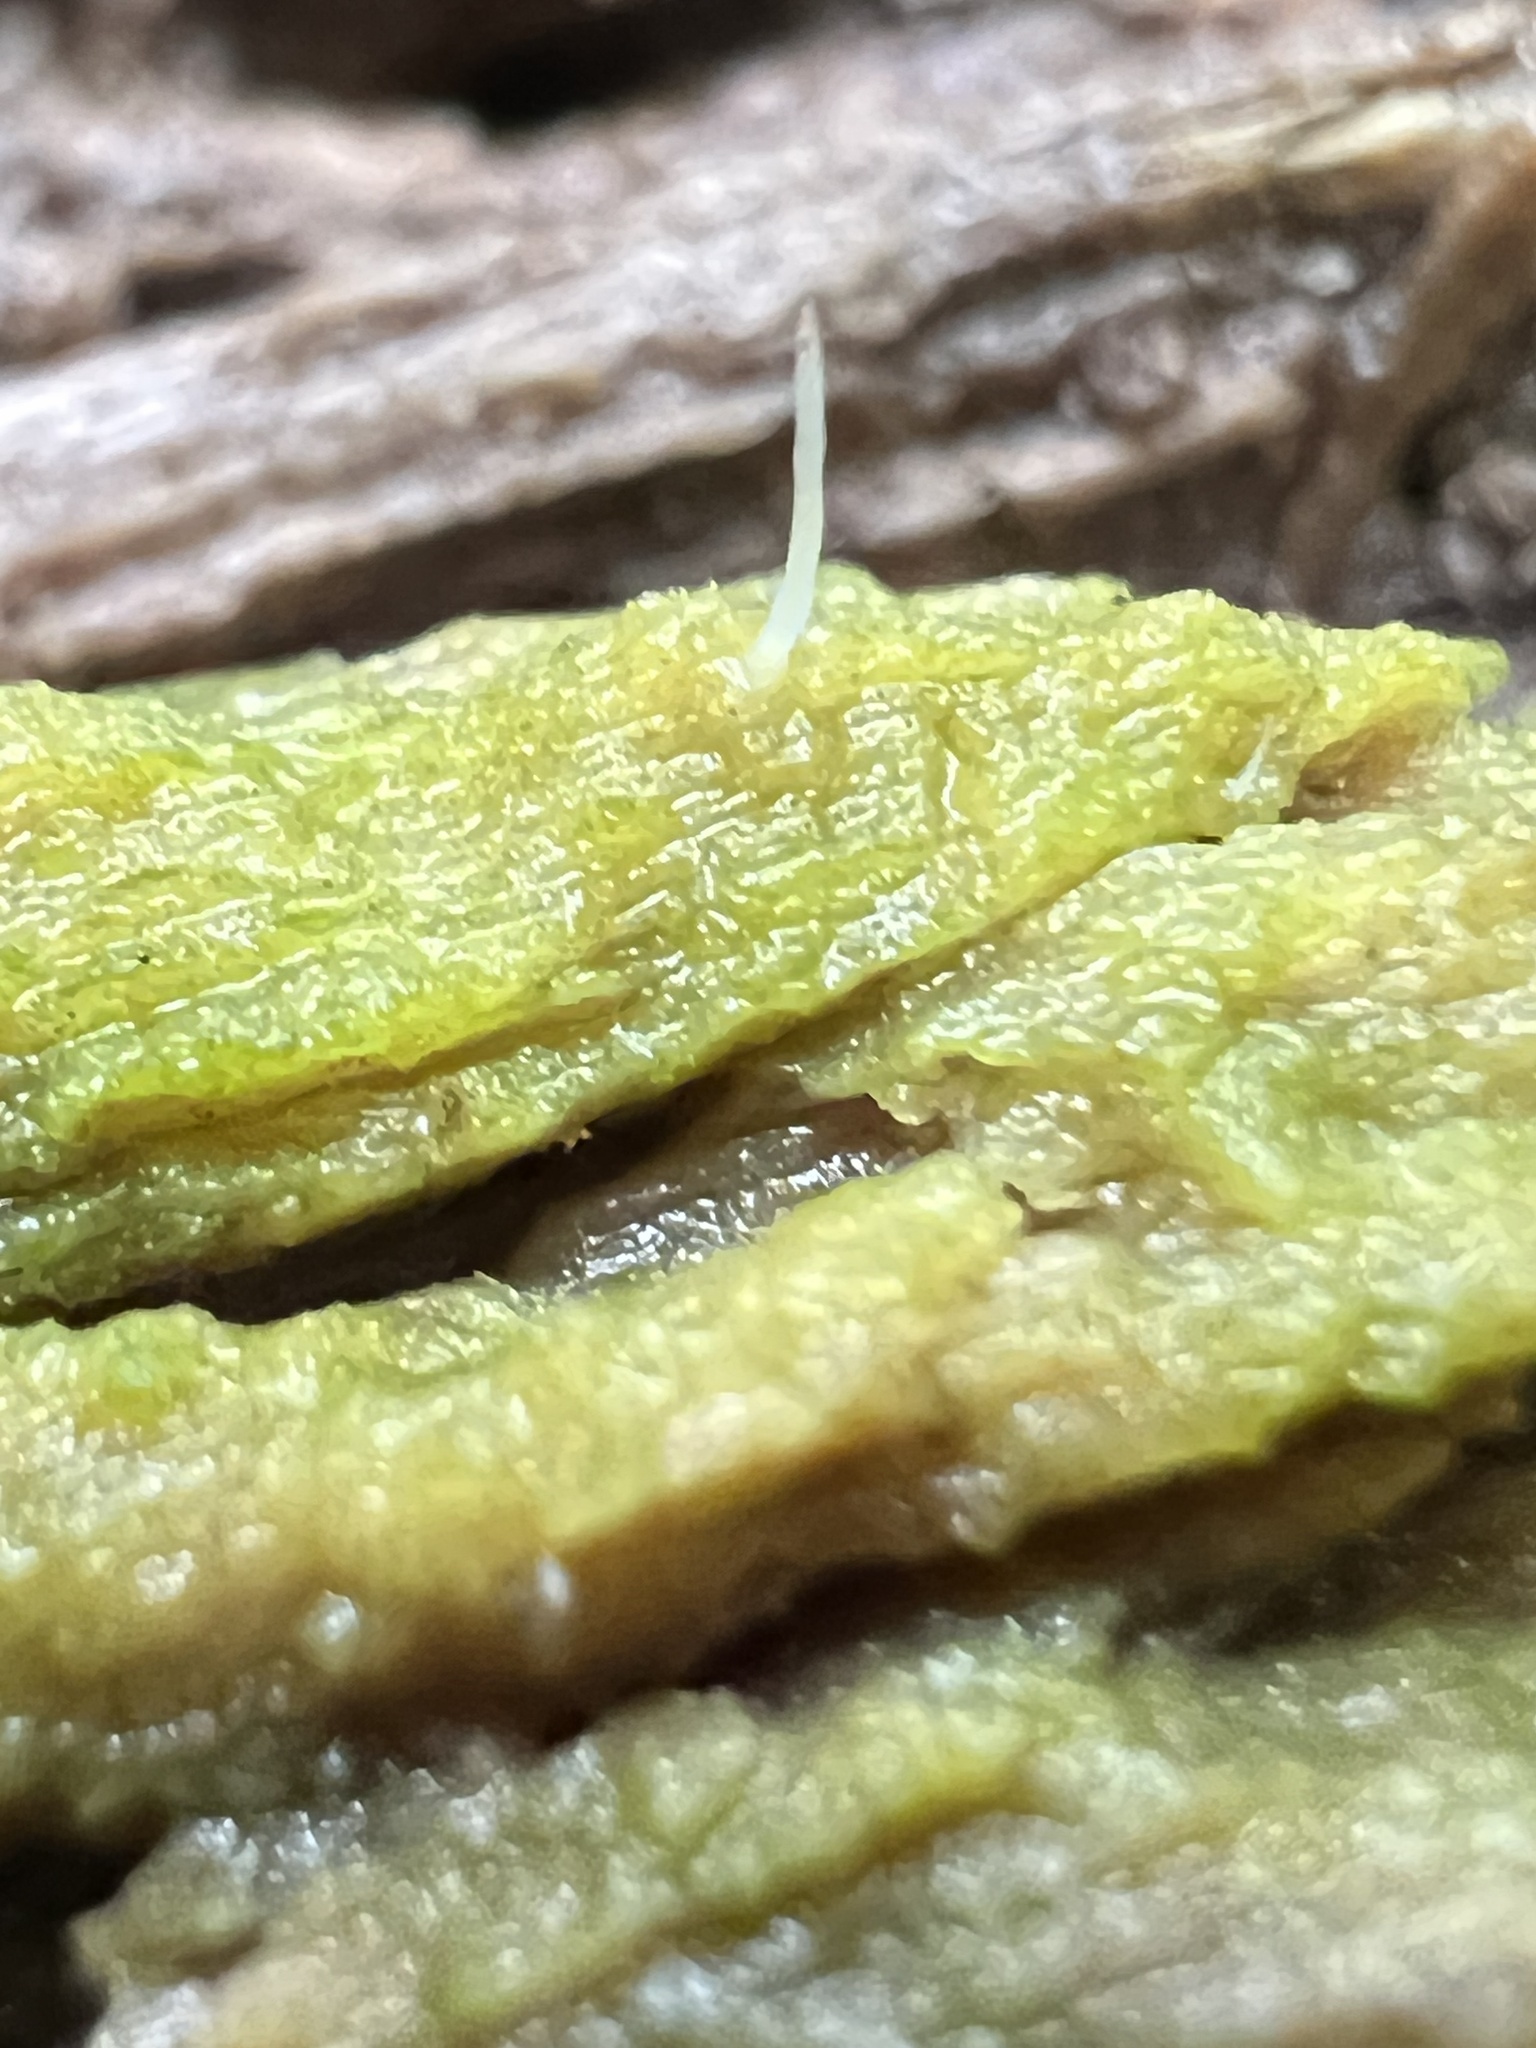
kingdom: Fungi
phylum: Basidiomycota
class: Agaricomycetes
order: Cantharellales
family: Hydnaceae
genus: Multiclavula
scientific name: Multiclavula mucida
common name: White green-algae coral
